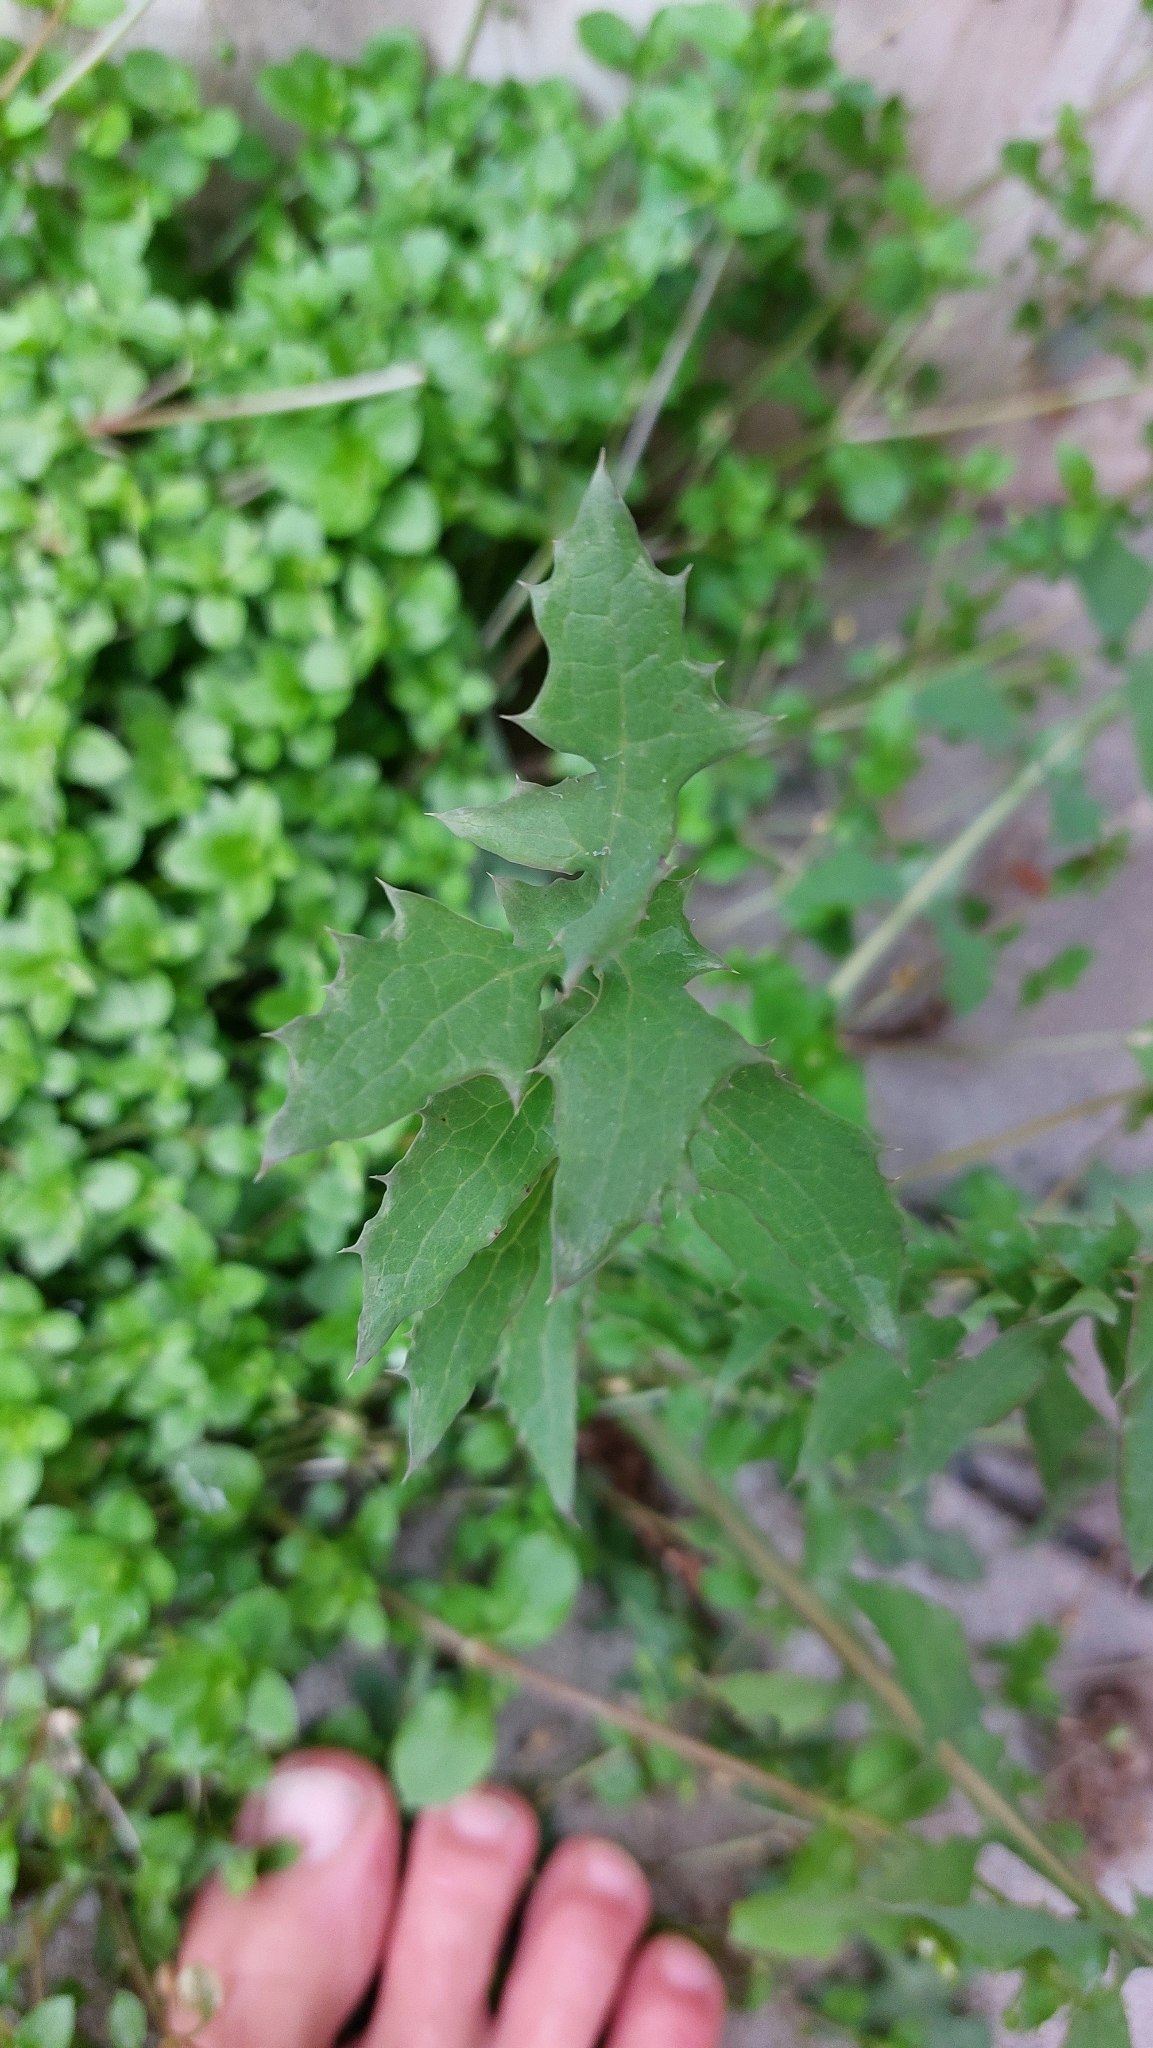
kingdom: Plantae
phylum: Tracheophyta
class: Magnoliopsida
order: Asterales
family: Asteraceae
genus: Sonchus
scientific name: Sonchus oleraceus
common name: Common sowthistle
